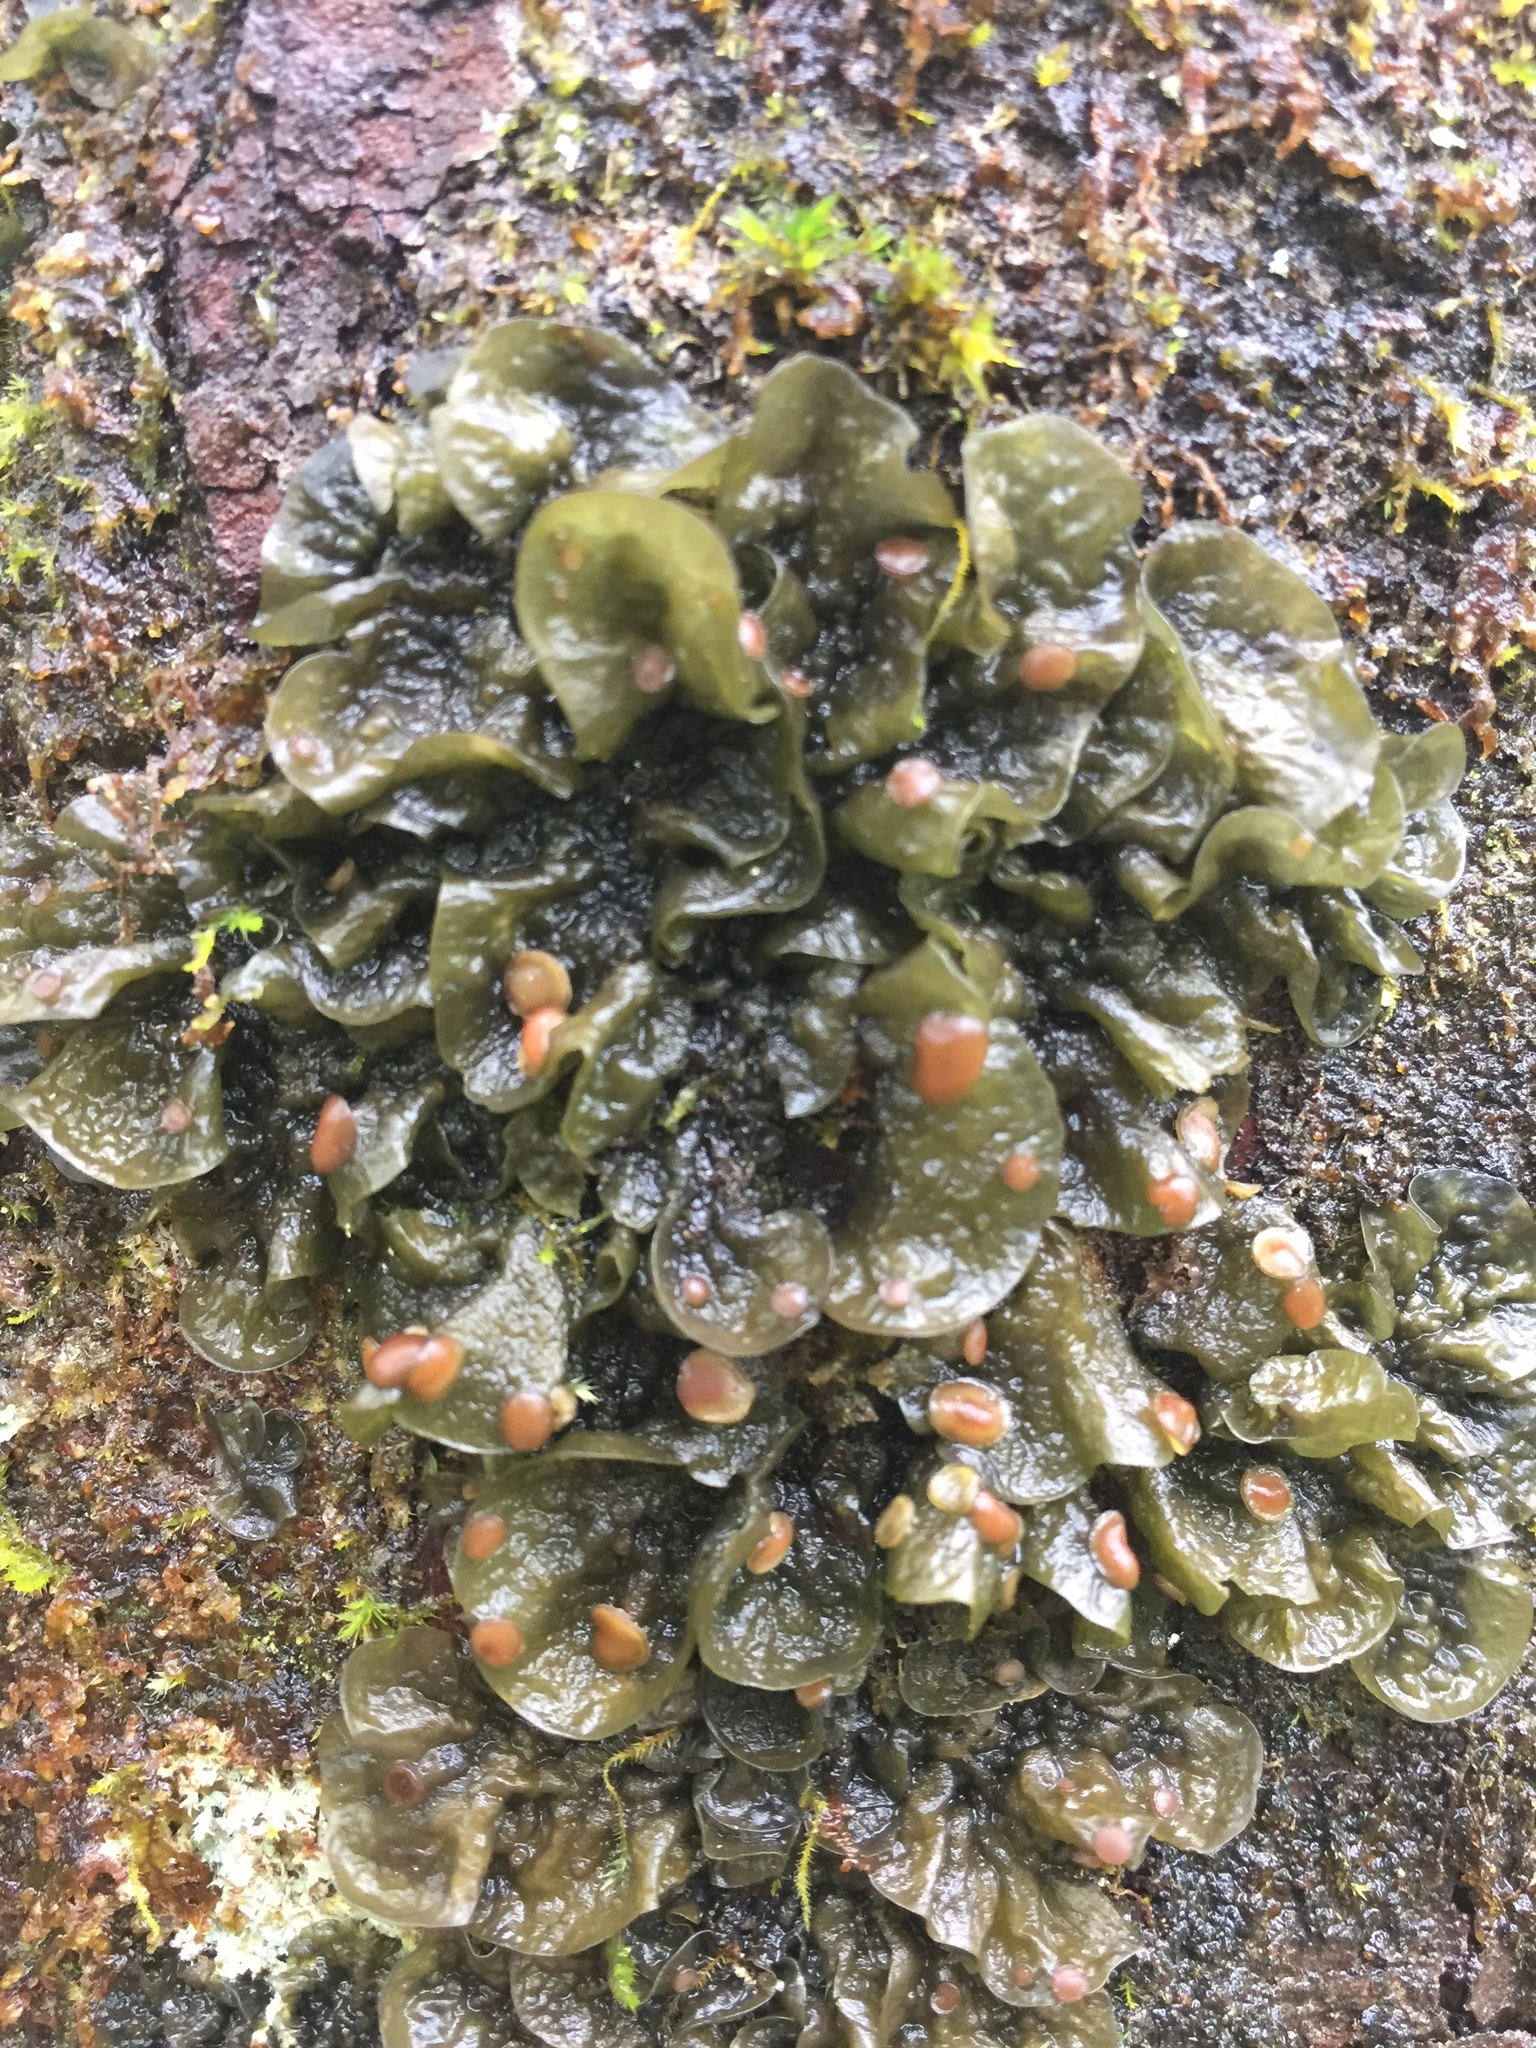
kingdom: Fungi
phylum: Ascomycota
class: Lecanoromycetes
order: Peltigerales
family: Collemataceae
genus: Leptogium
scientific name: Leptogium corticola
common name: Blistered jellyskin lichen
